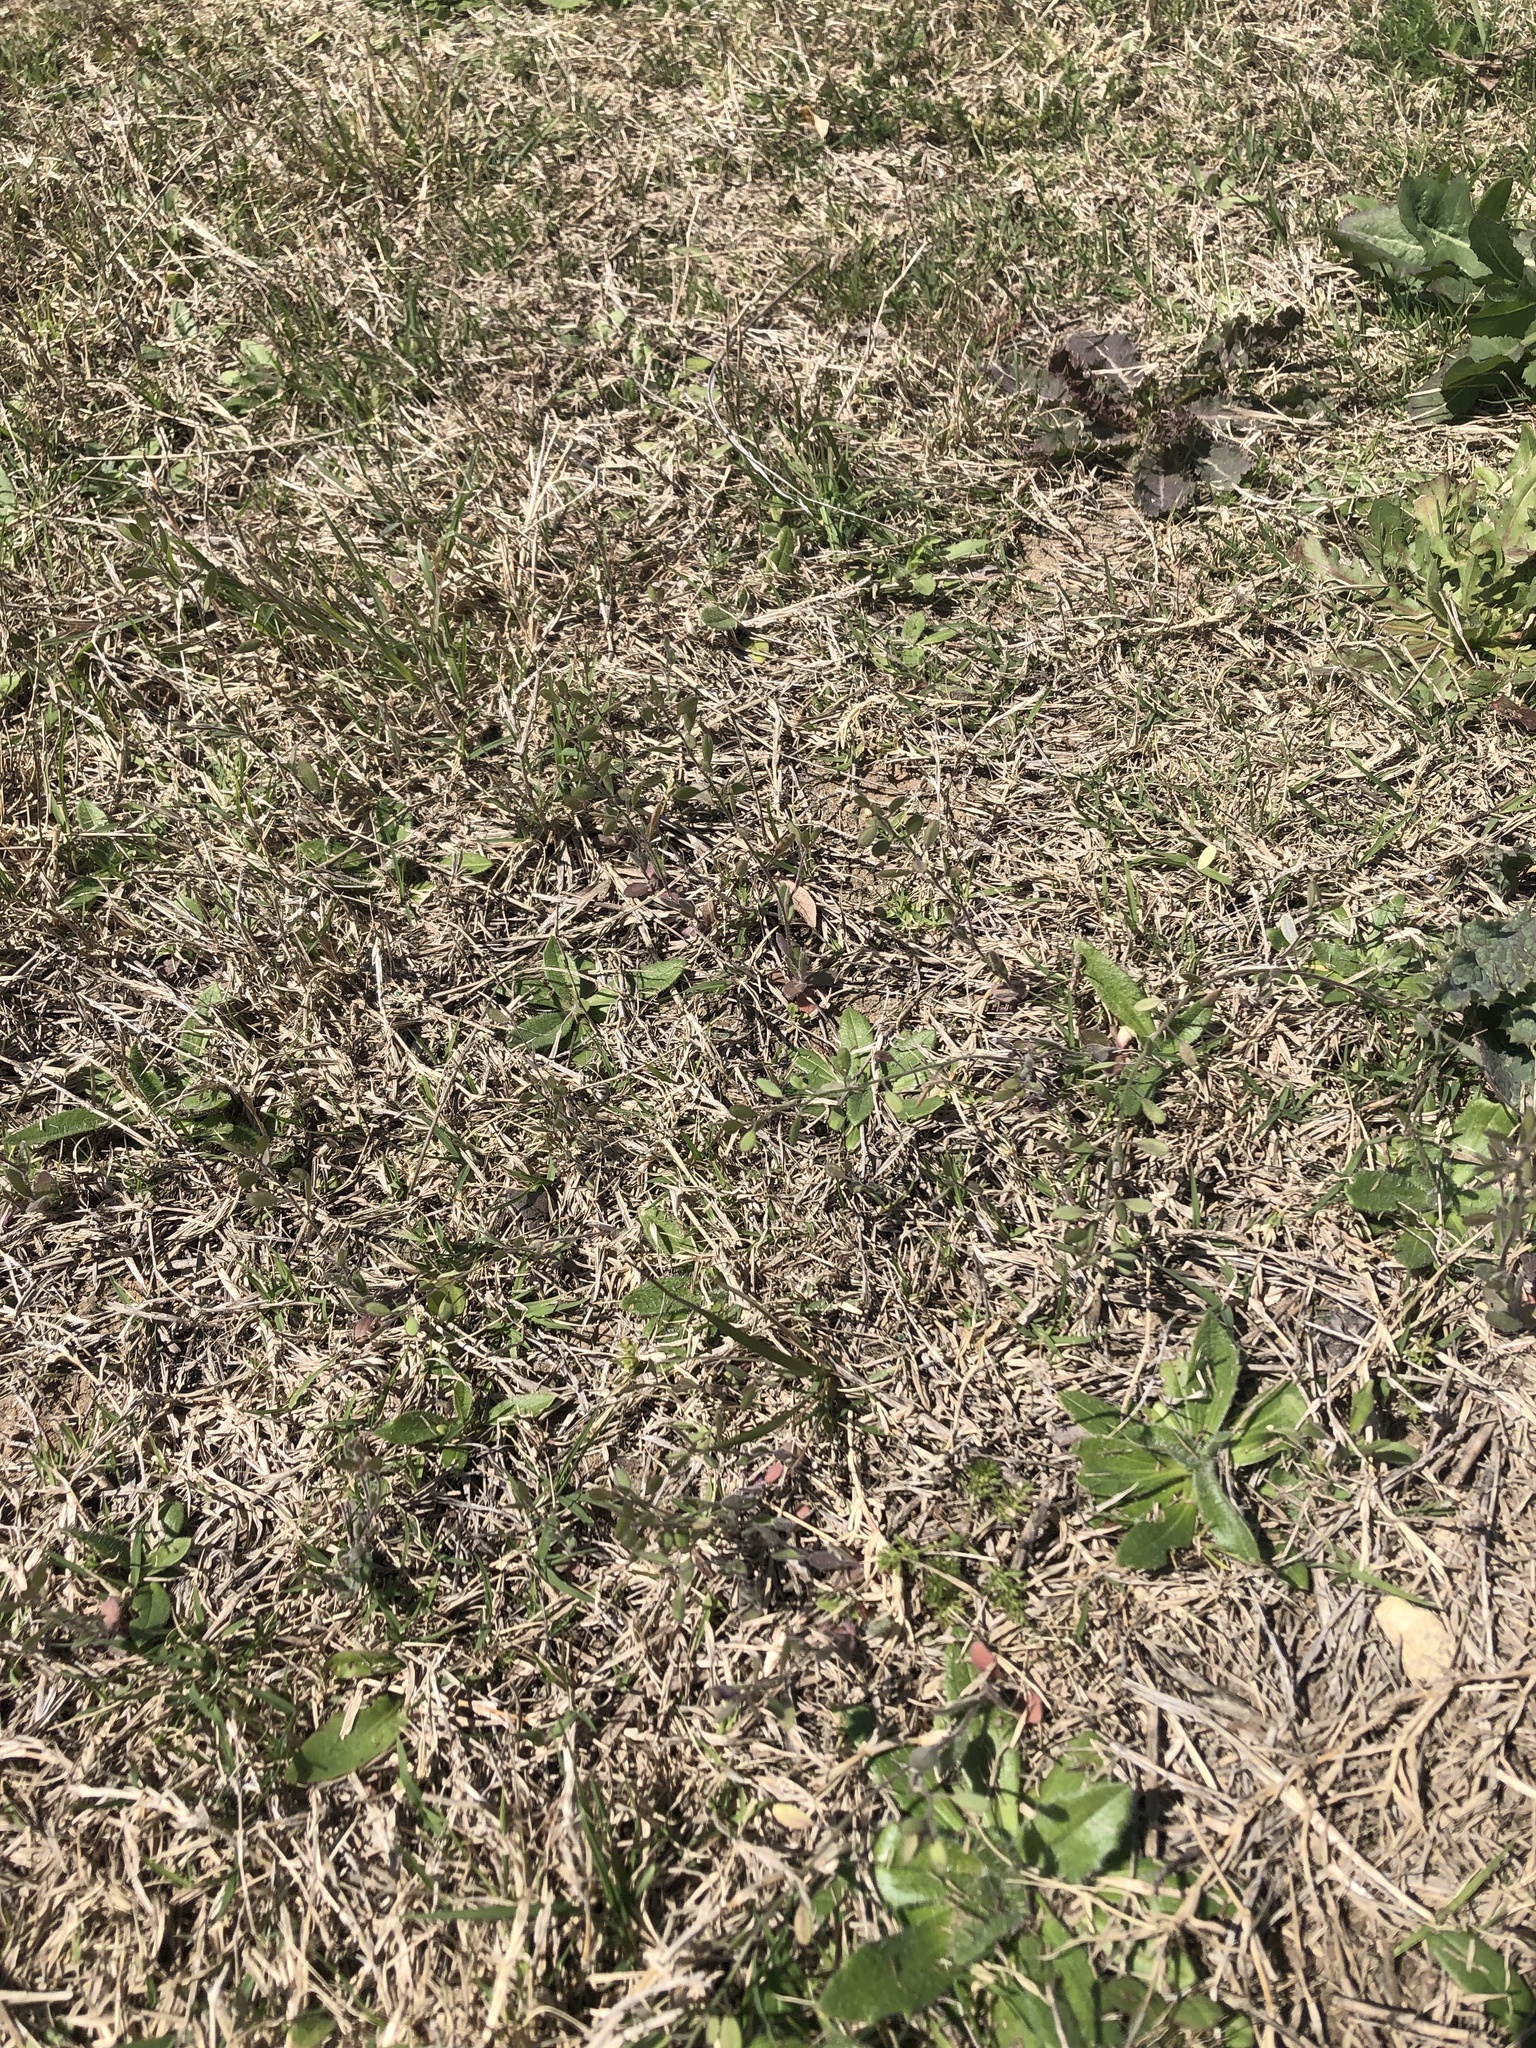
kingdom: Plantae
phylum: Tracheophyta
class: Magnoliopsida
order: Brassicales
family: Brassicaceae
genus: Tomostima
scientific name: Tomostima platycarpa
